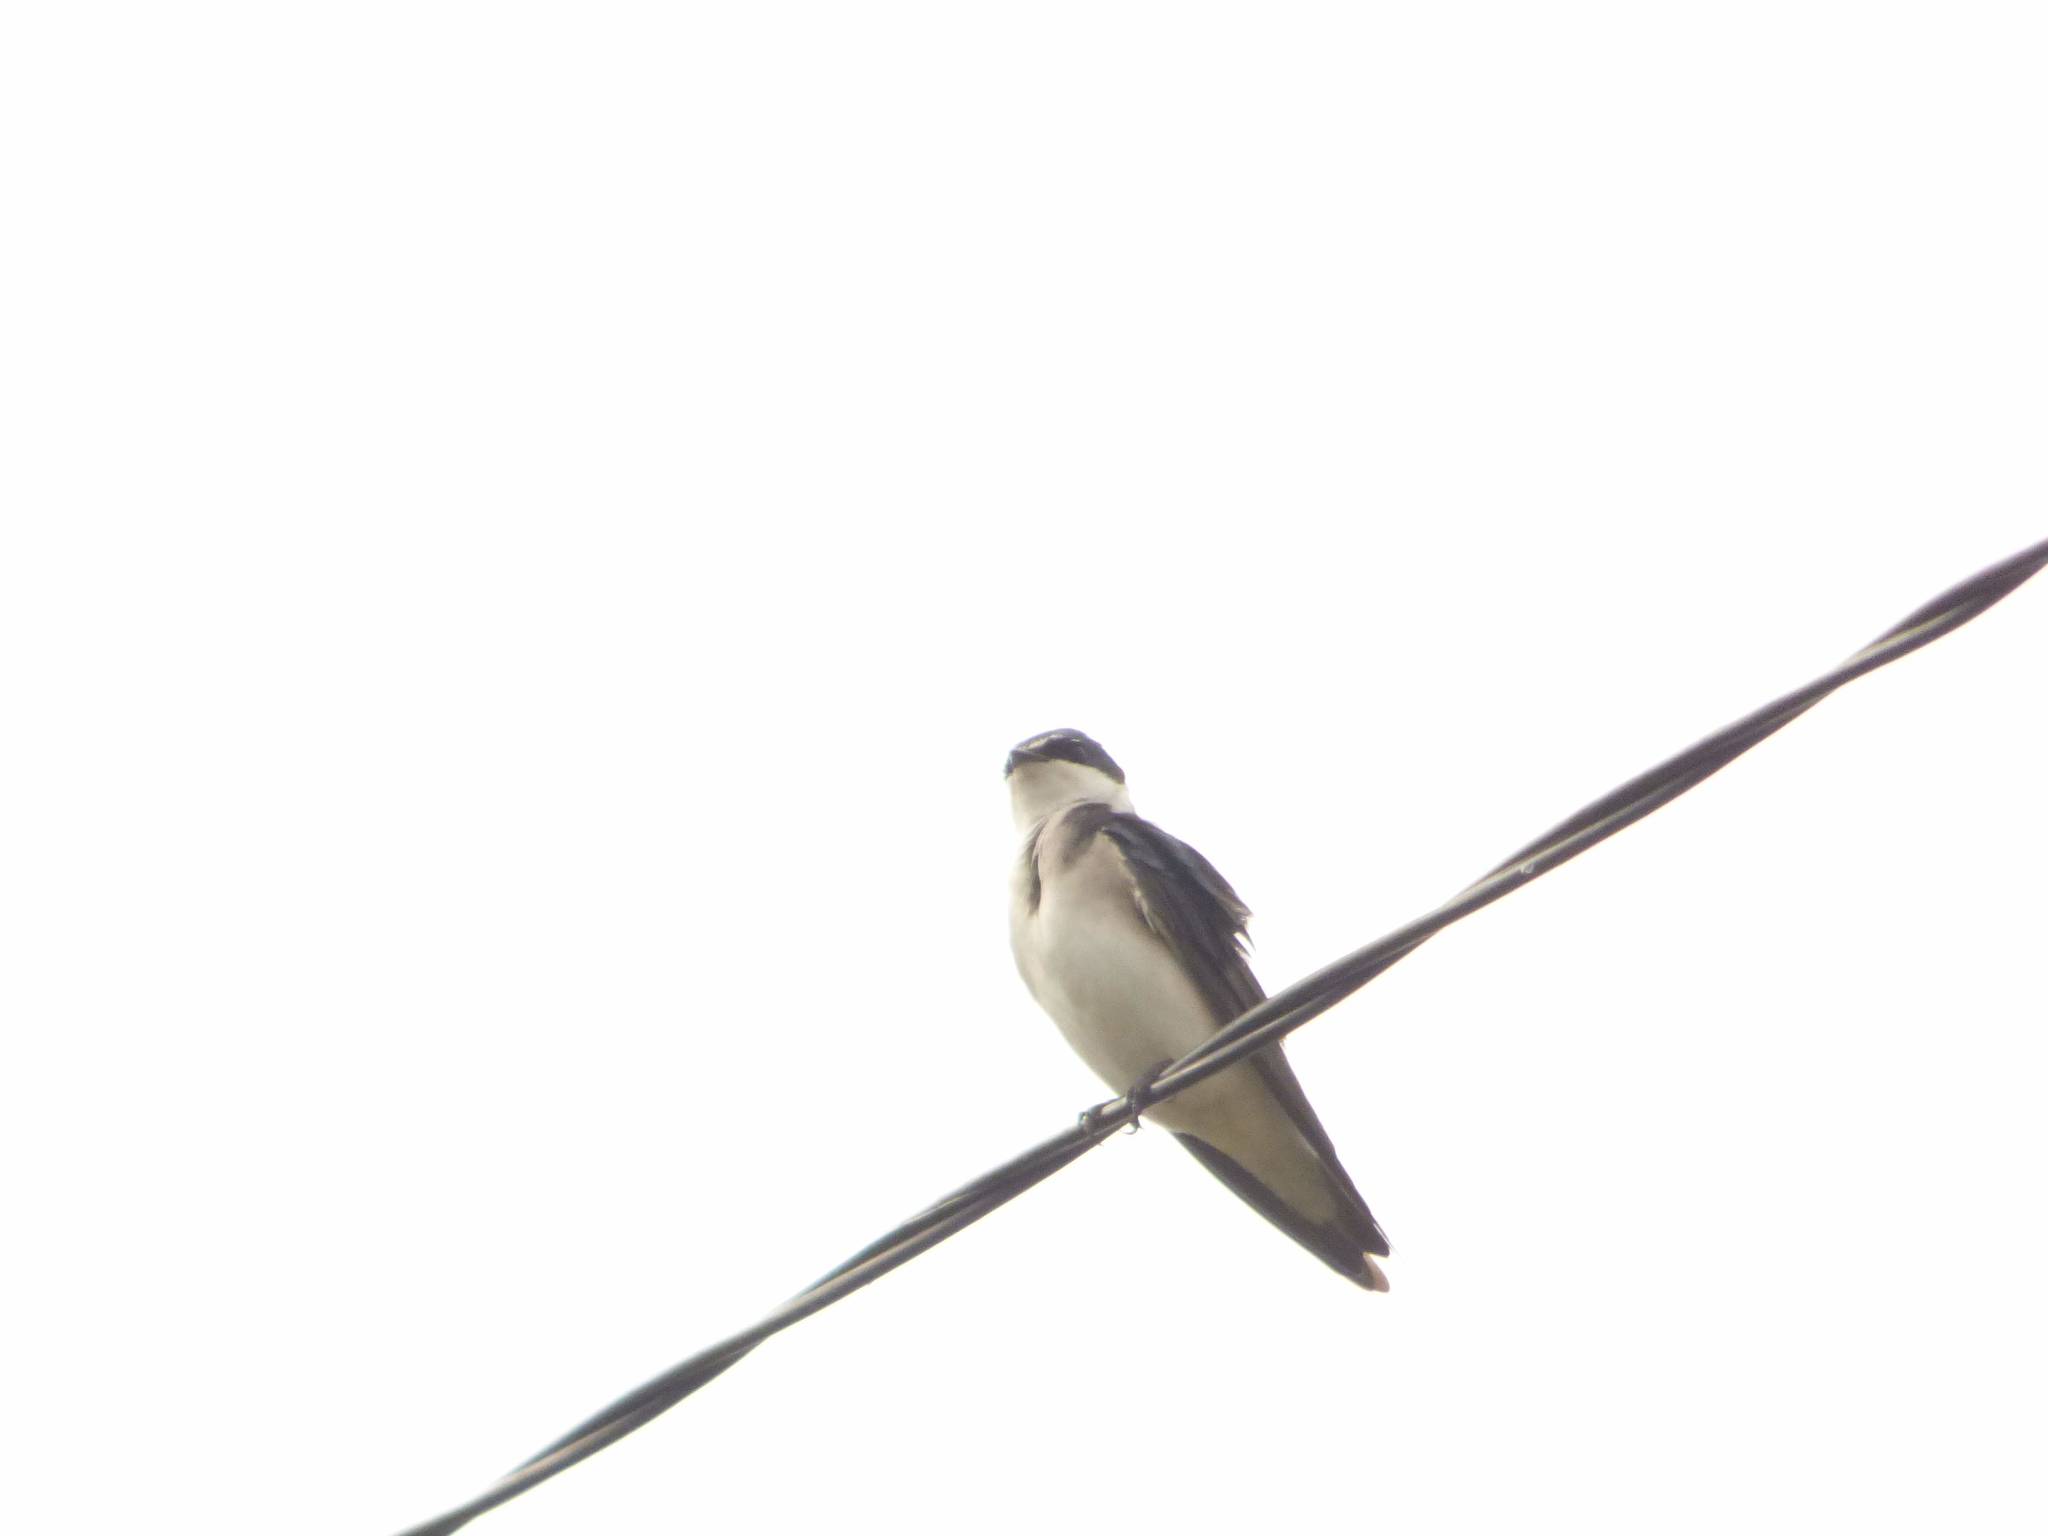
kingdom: Animalia
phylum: Chordata
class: Aves
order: Passeriformes
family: Hirundinidae
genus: Tachycineta
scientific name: Tachycineta leucorrhoa
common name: White-rumped swallow
